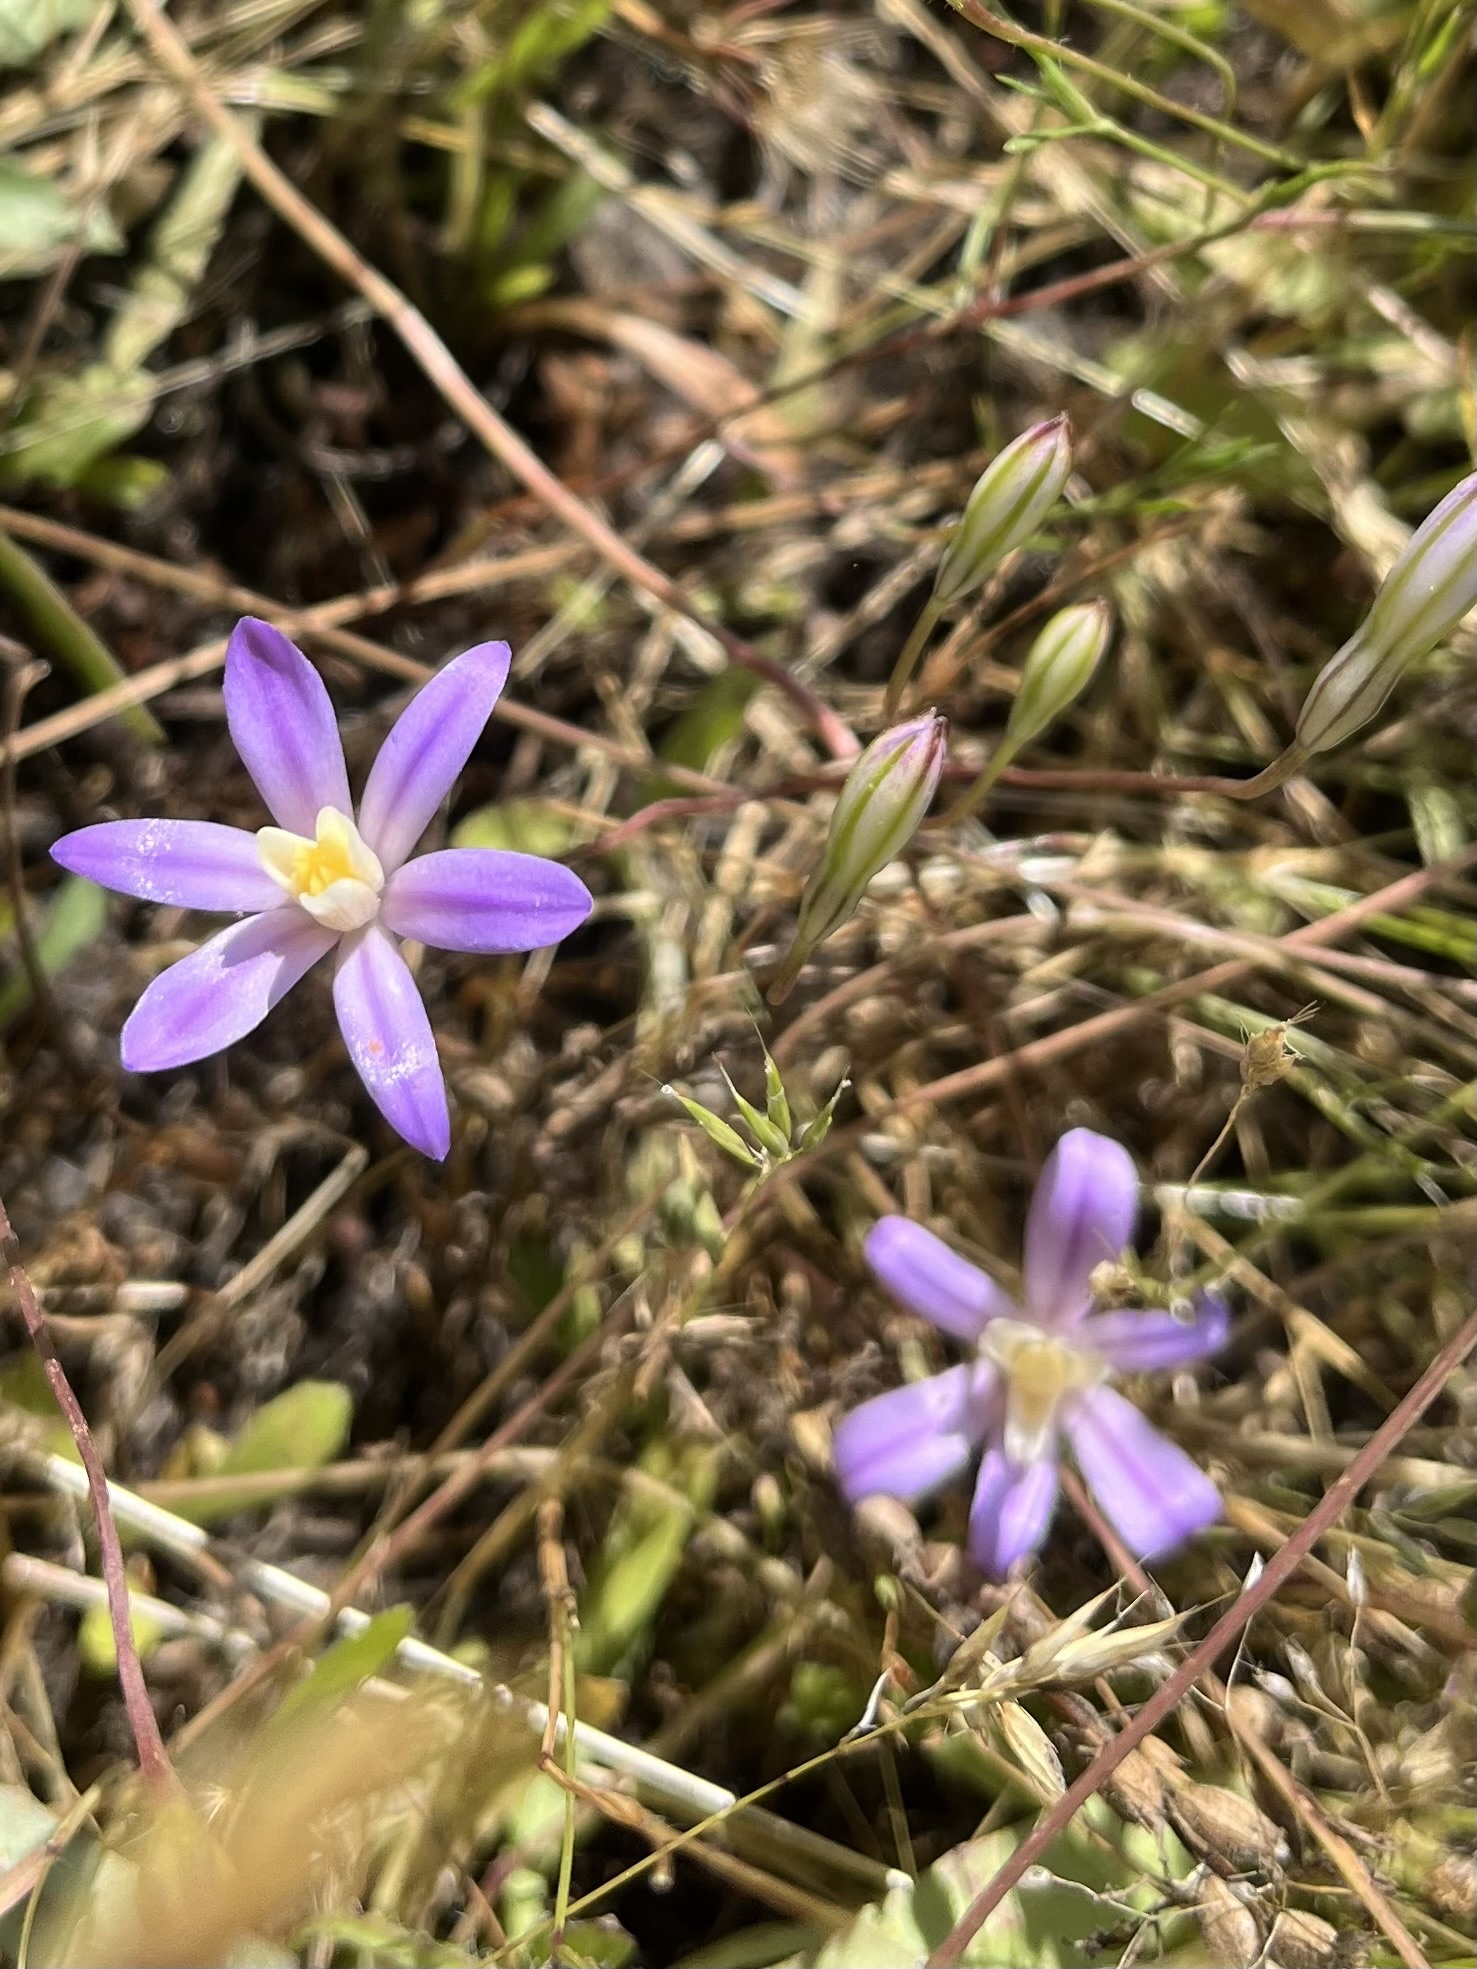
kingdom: Plantae
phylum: Tracheophyta
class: Liliopsida
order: Asparagales
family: Asparagaceae
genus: Brodiaea
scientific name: Brodiaea nana
